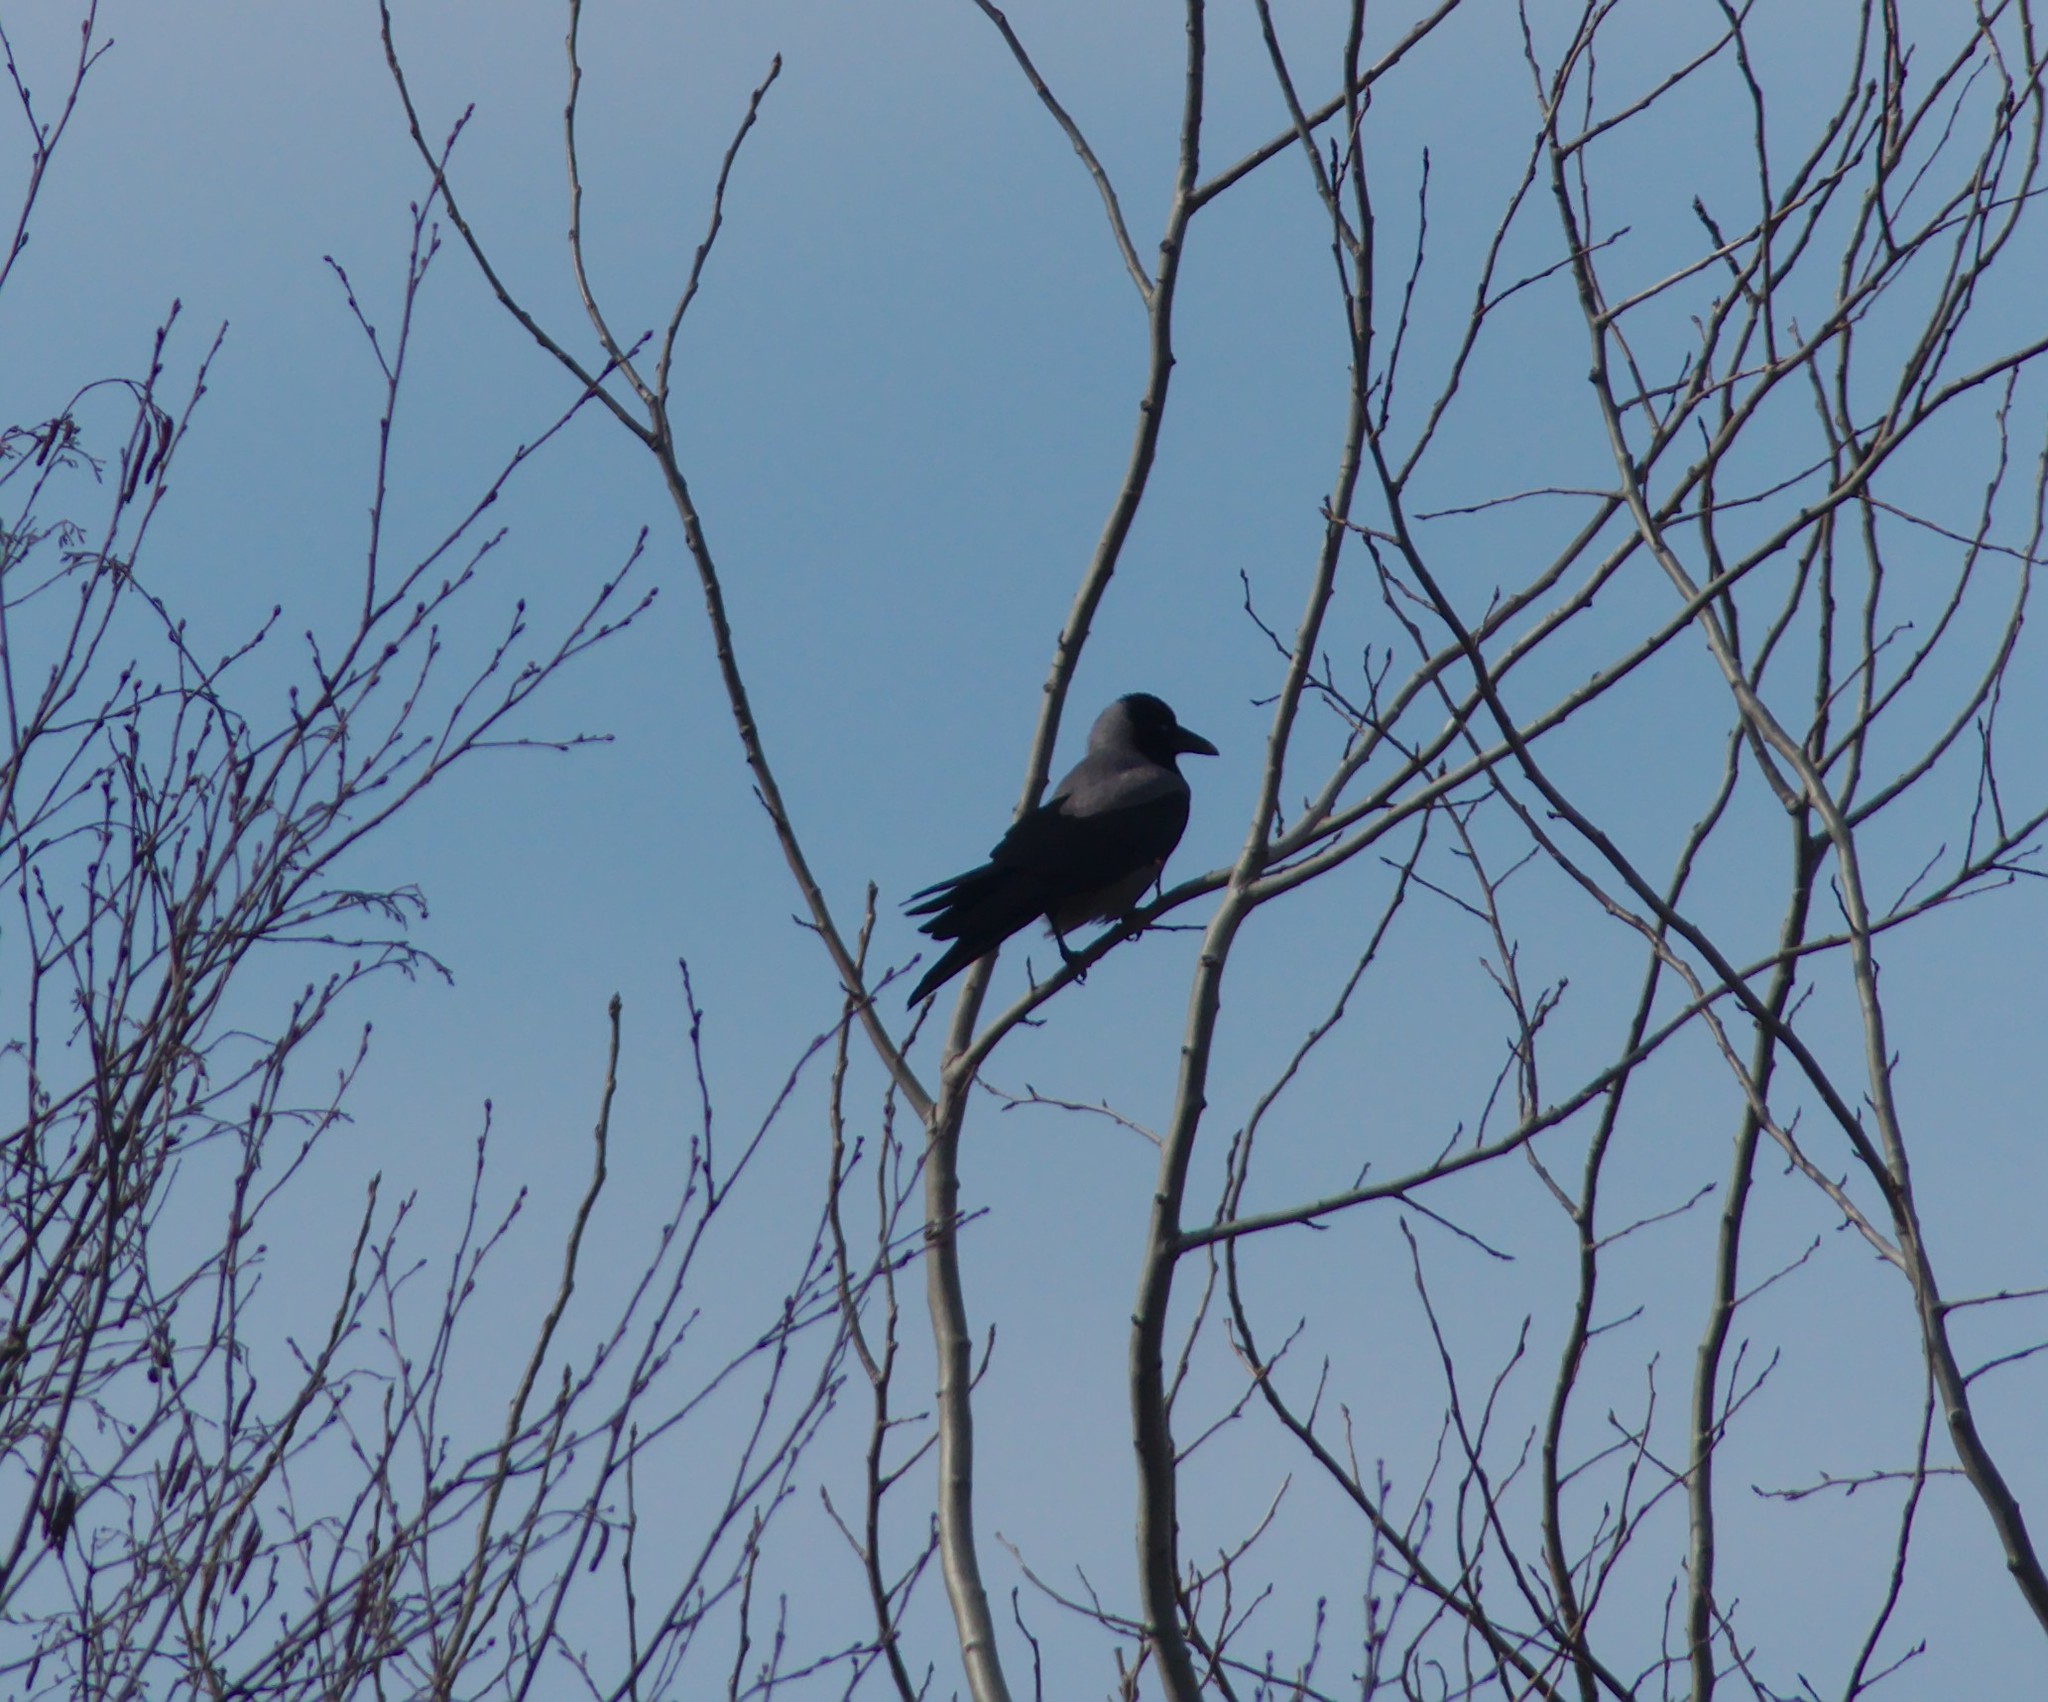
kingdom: Animalia
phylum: Chordata
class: Aves
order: Passeriformes
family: Corvidae
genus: Corvus
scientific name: Corvus cornix
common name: Hooded crow
